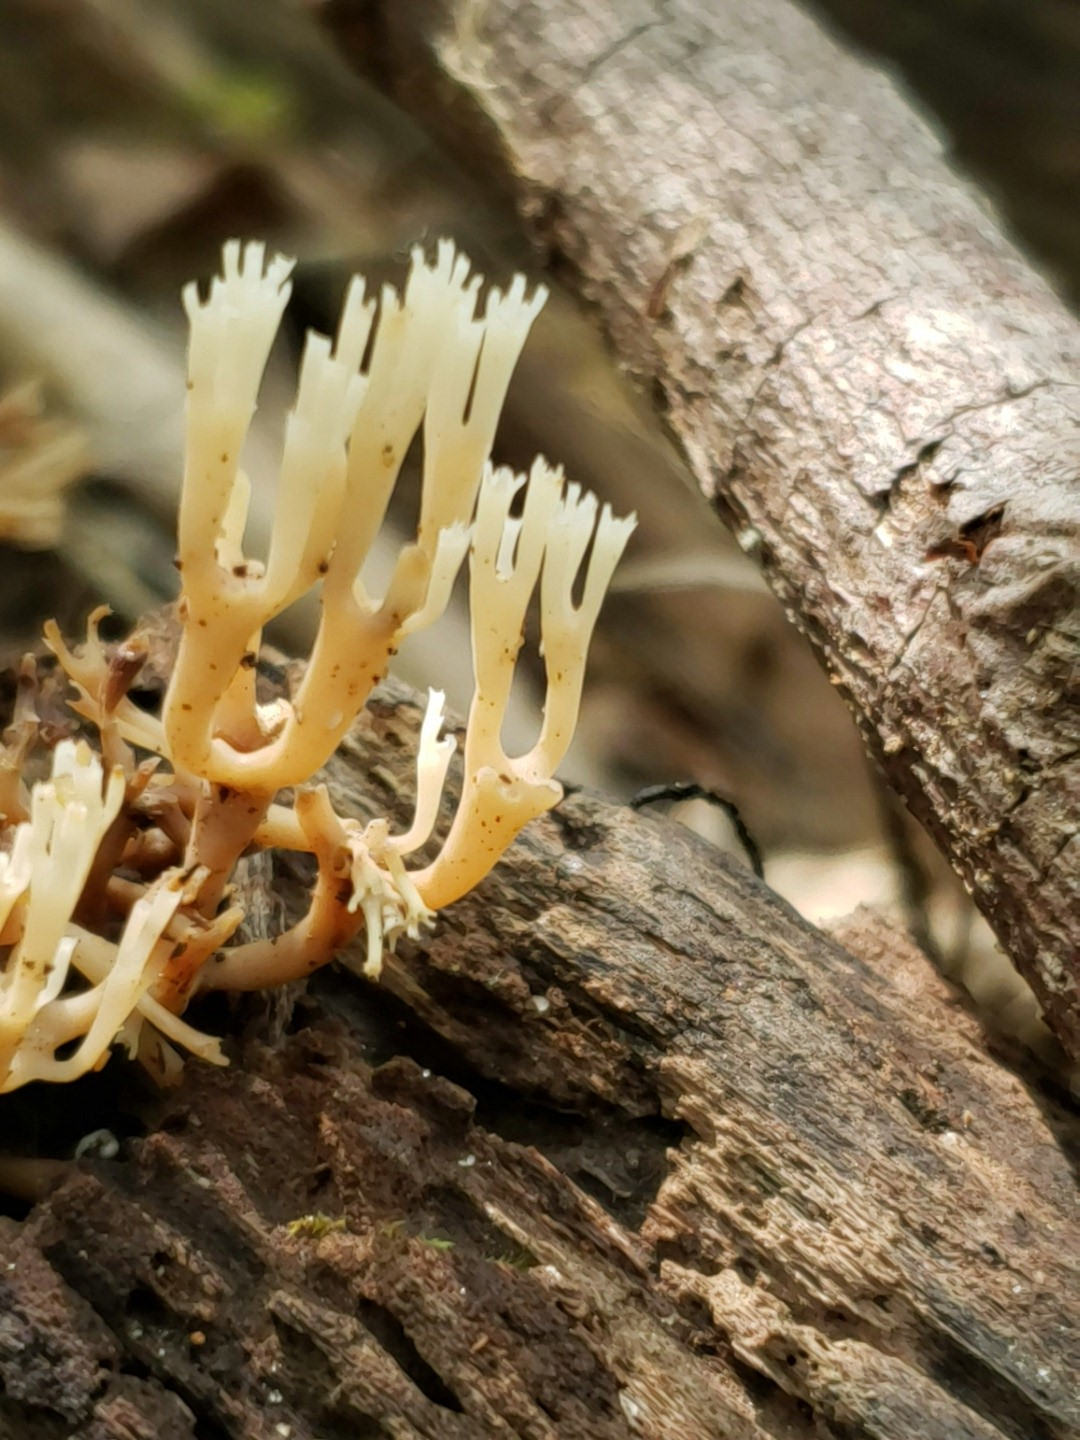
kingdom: Fungi
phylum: Basidiomycota
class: Agaricomycetes
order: Russulales
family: Auriscalpiaceae
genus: Artomyces
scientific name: Artomyces pyxidatus
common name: Crown-tipped coral fungus
